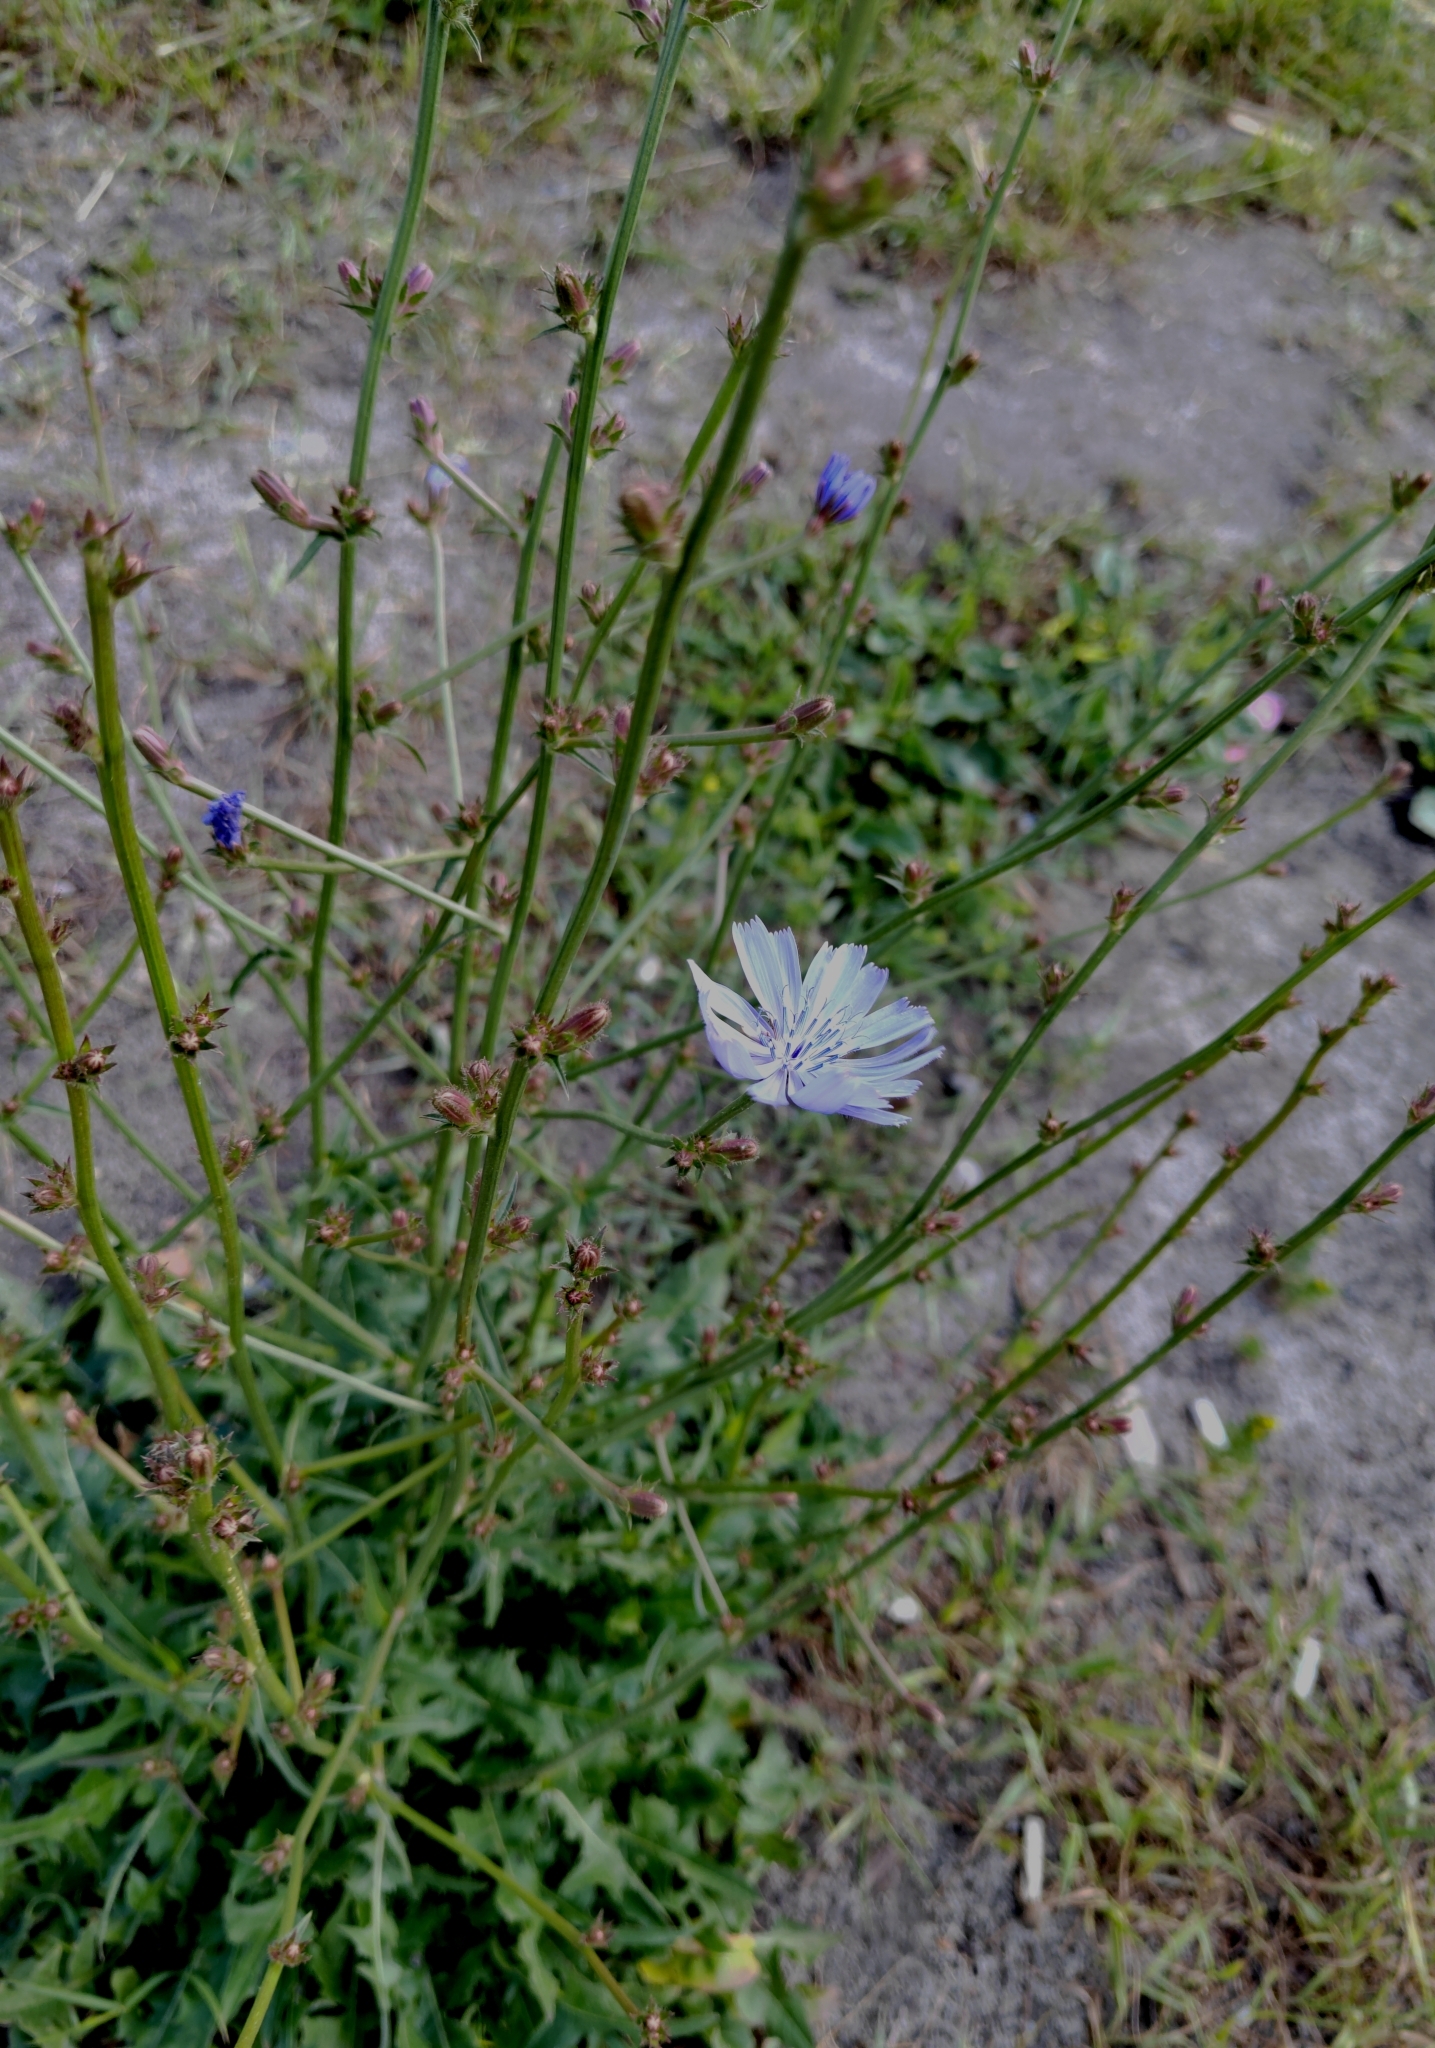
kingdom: Plantae
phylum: Tracheophyta
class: Magnoliopsida
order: Asterales
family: Asteraceae
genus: Cichorium
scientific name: Cichorium intybus
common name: Chicory
